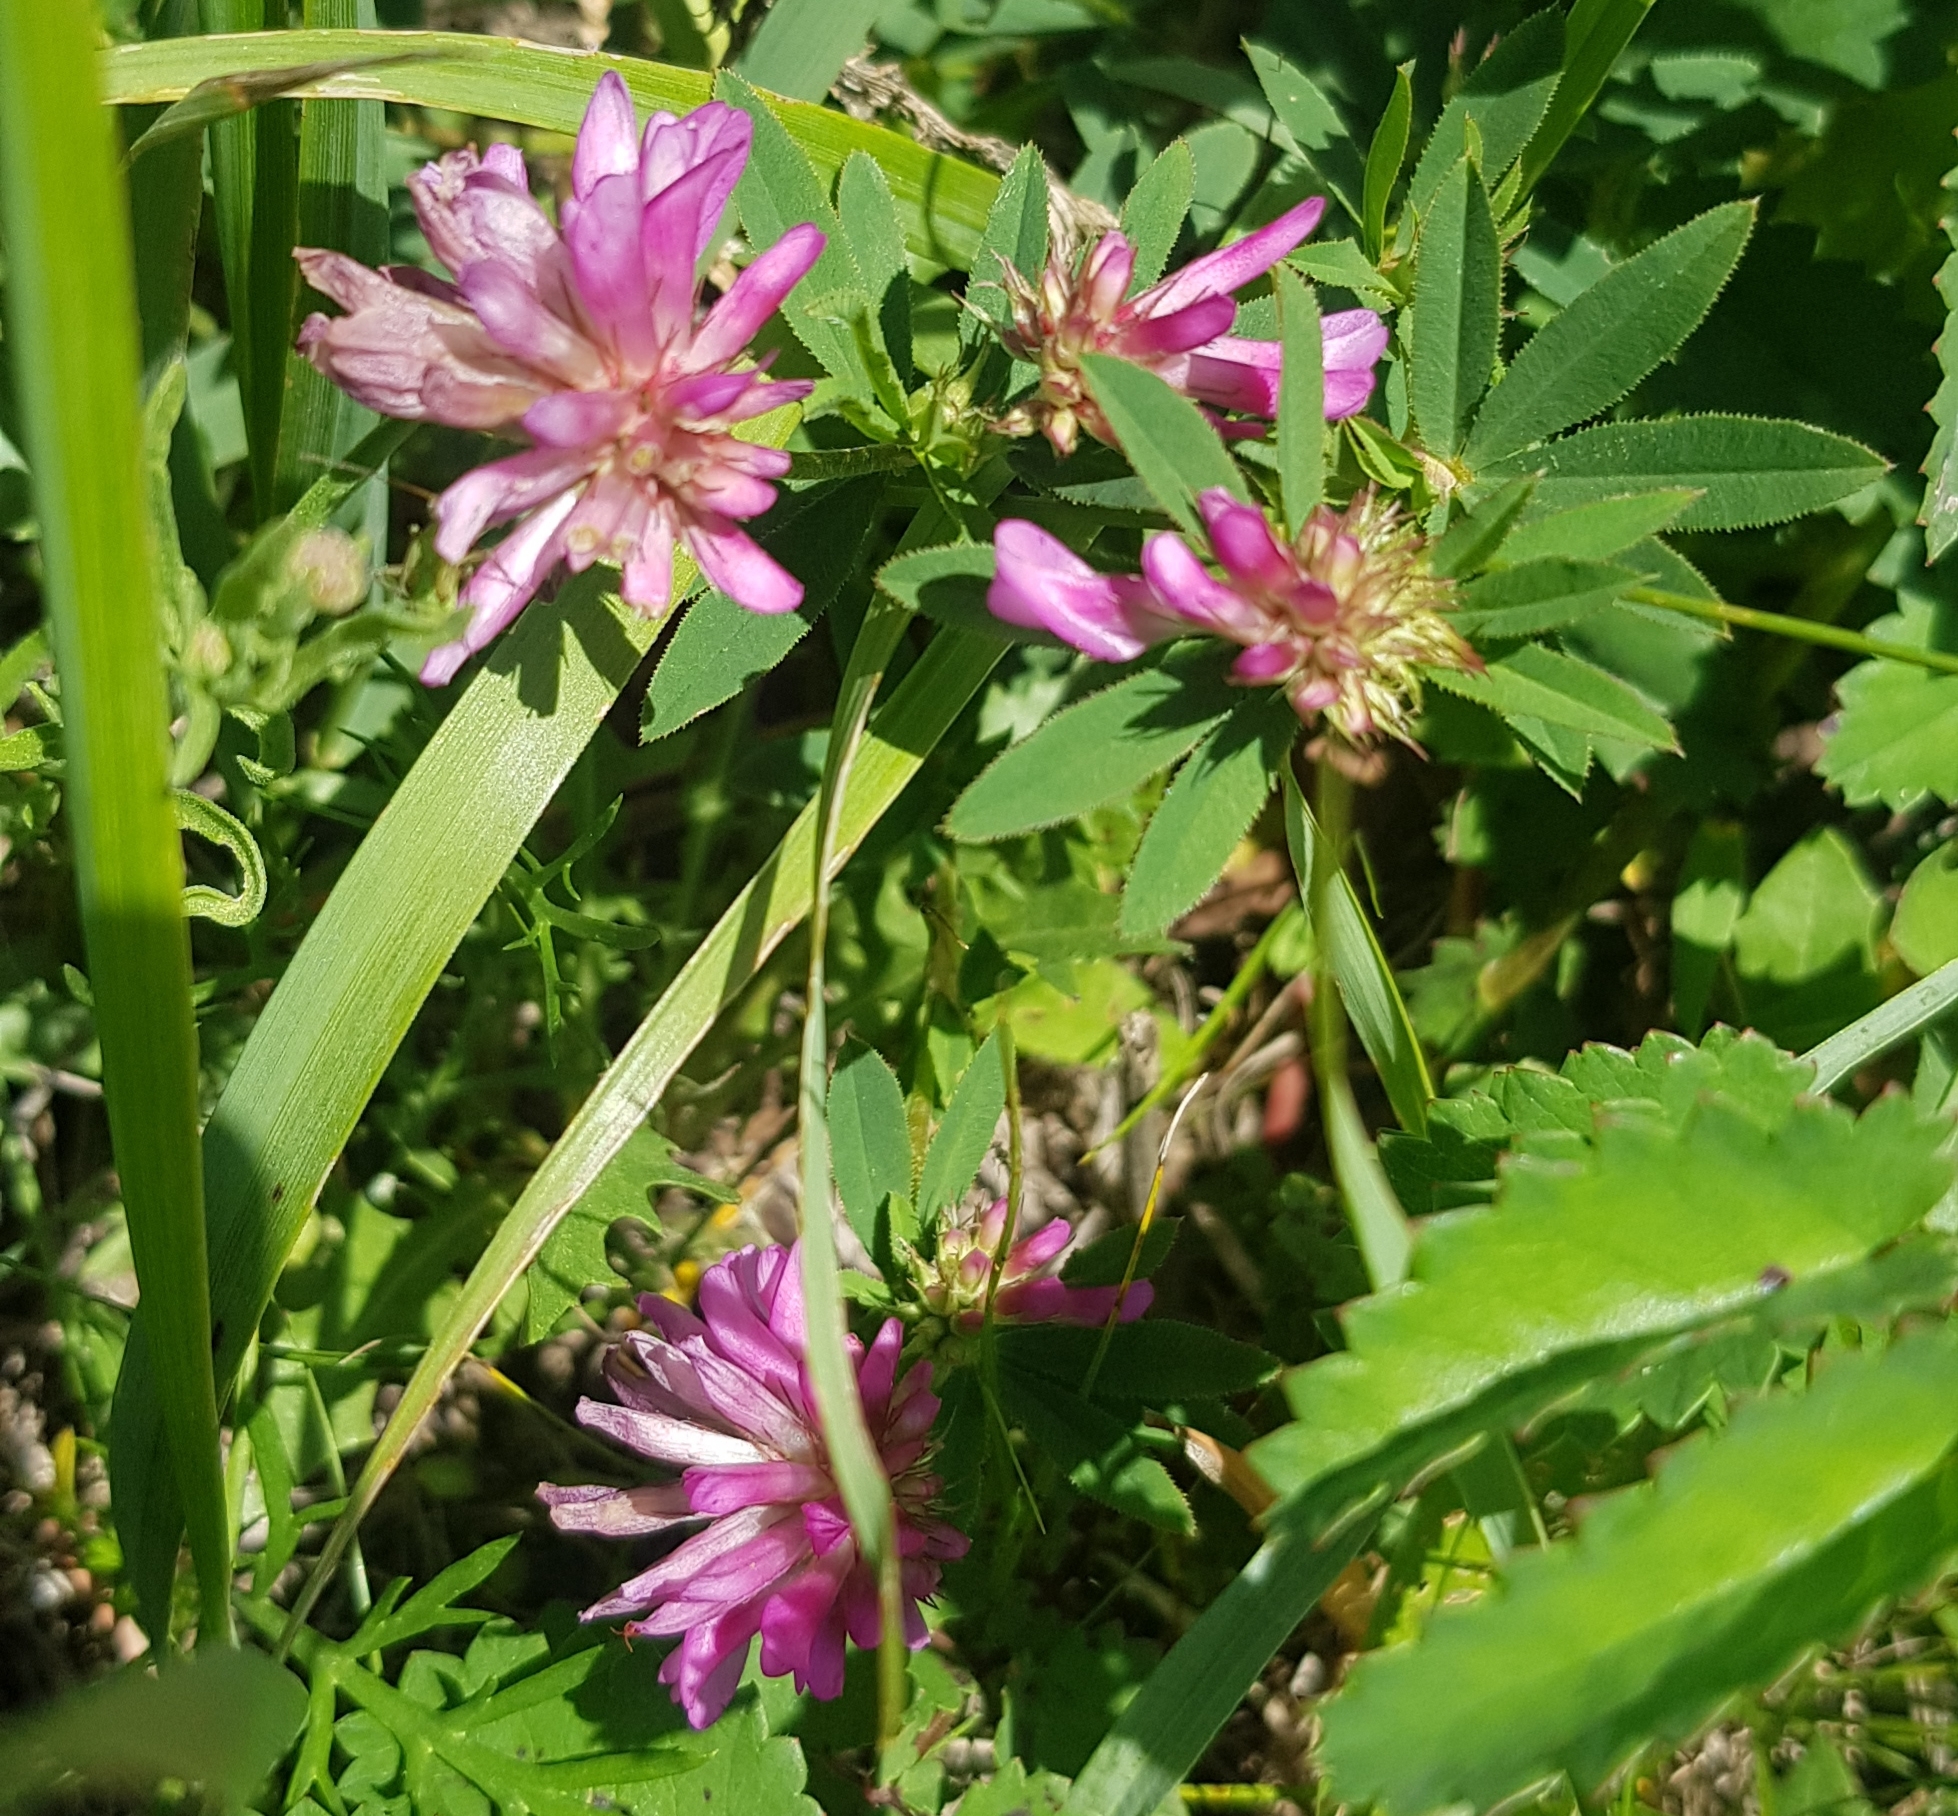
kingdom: Plantae
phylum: Tracheophyta
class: Magnoliopsida
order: Fabales
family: Fabaceae
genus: Trifolium
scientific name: Trifolium lupinaster
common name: Lupine clover
